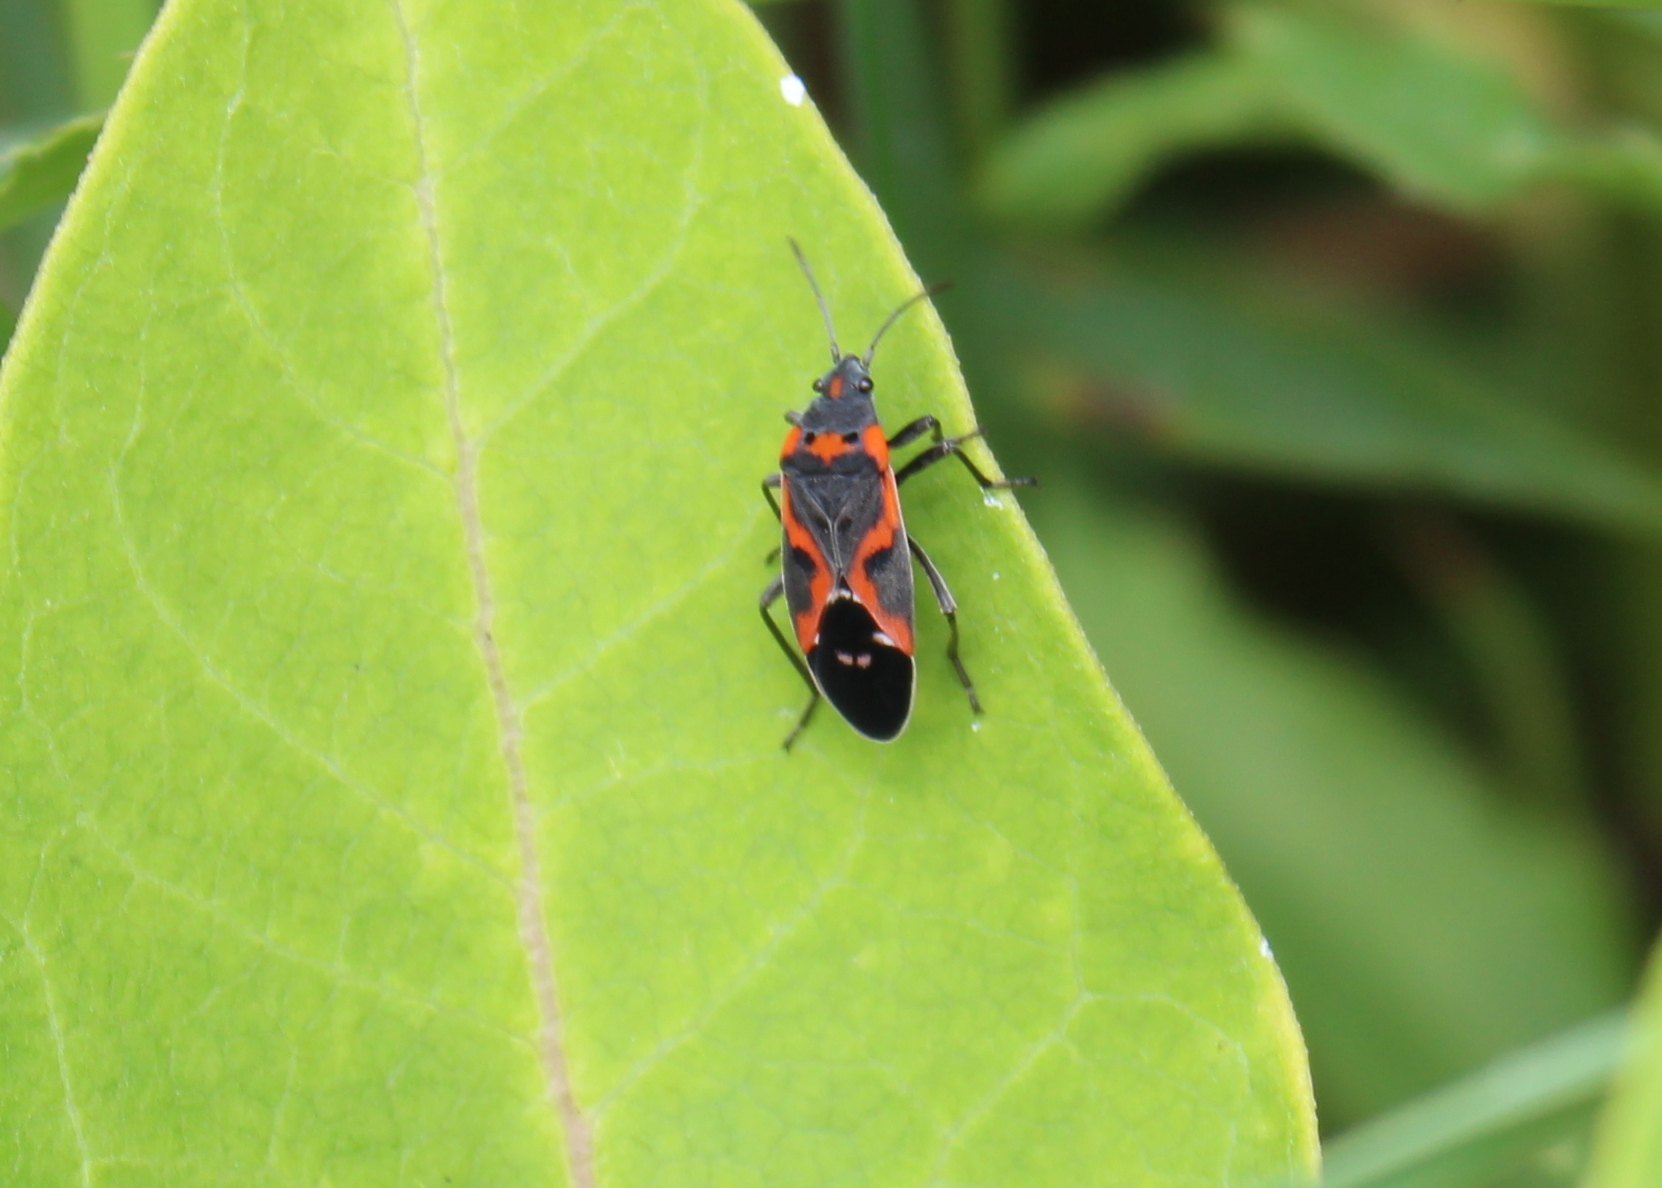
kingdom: Animalia
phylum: Arthropoda
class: Insecta
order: Hemiptera
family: Lygaeidae
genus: Lygaeus
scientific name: Lygaeus kalmii
